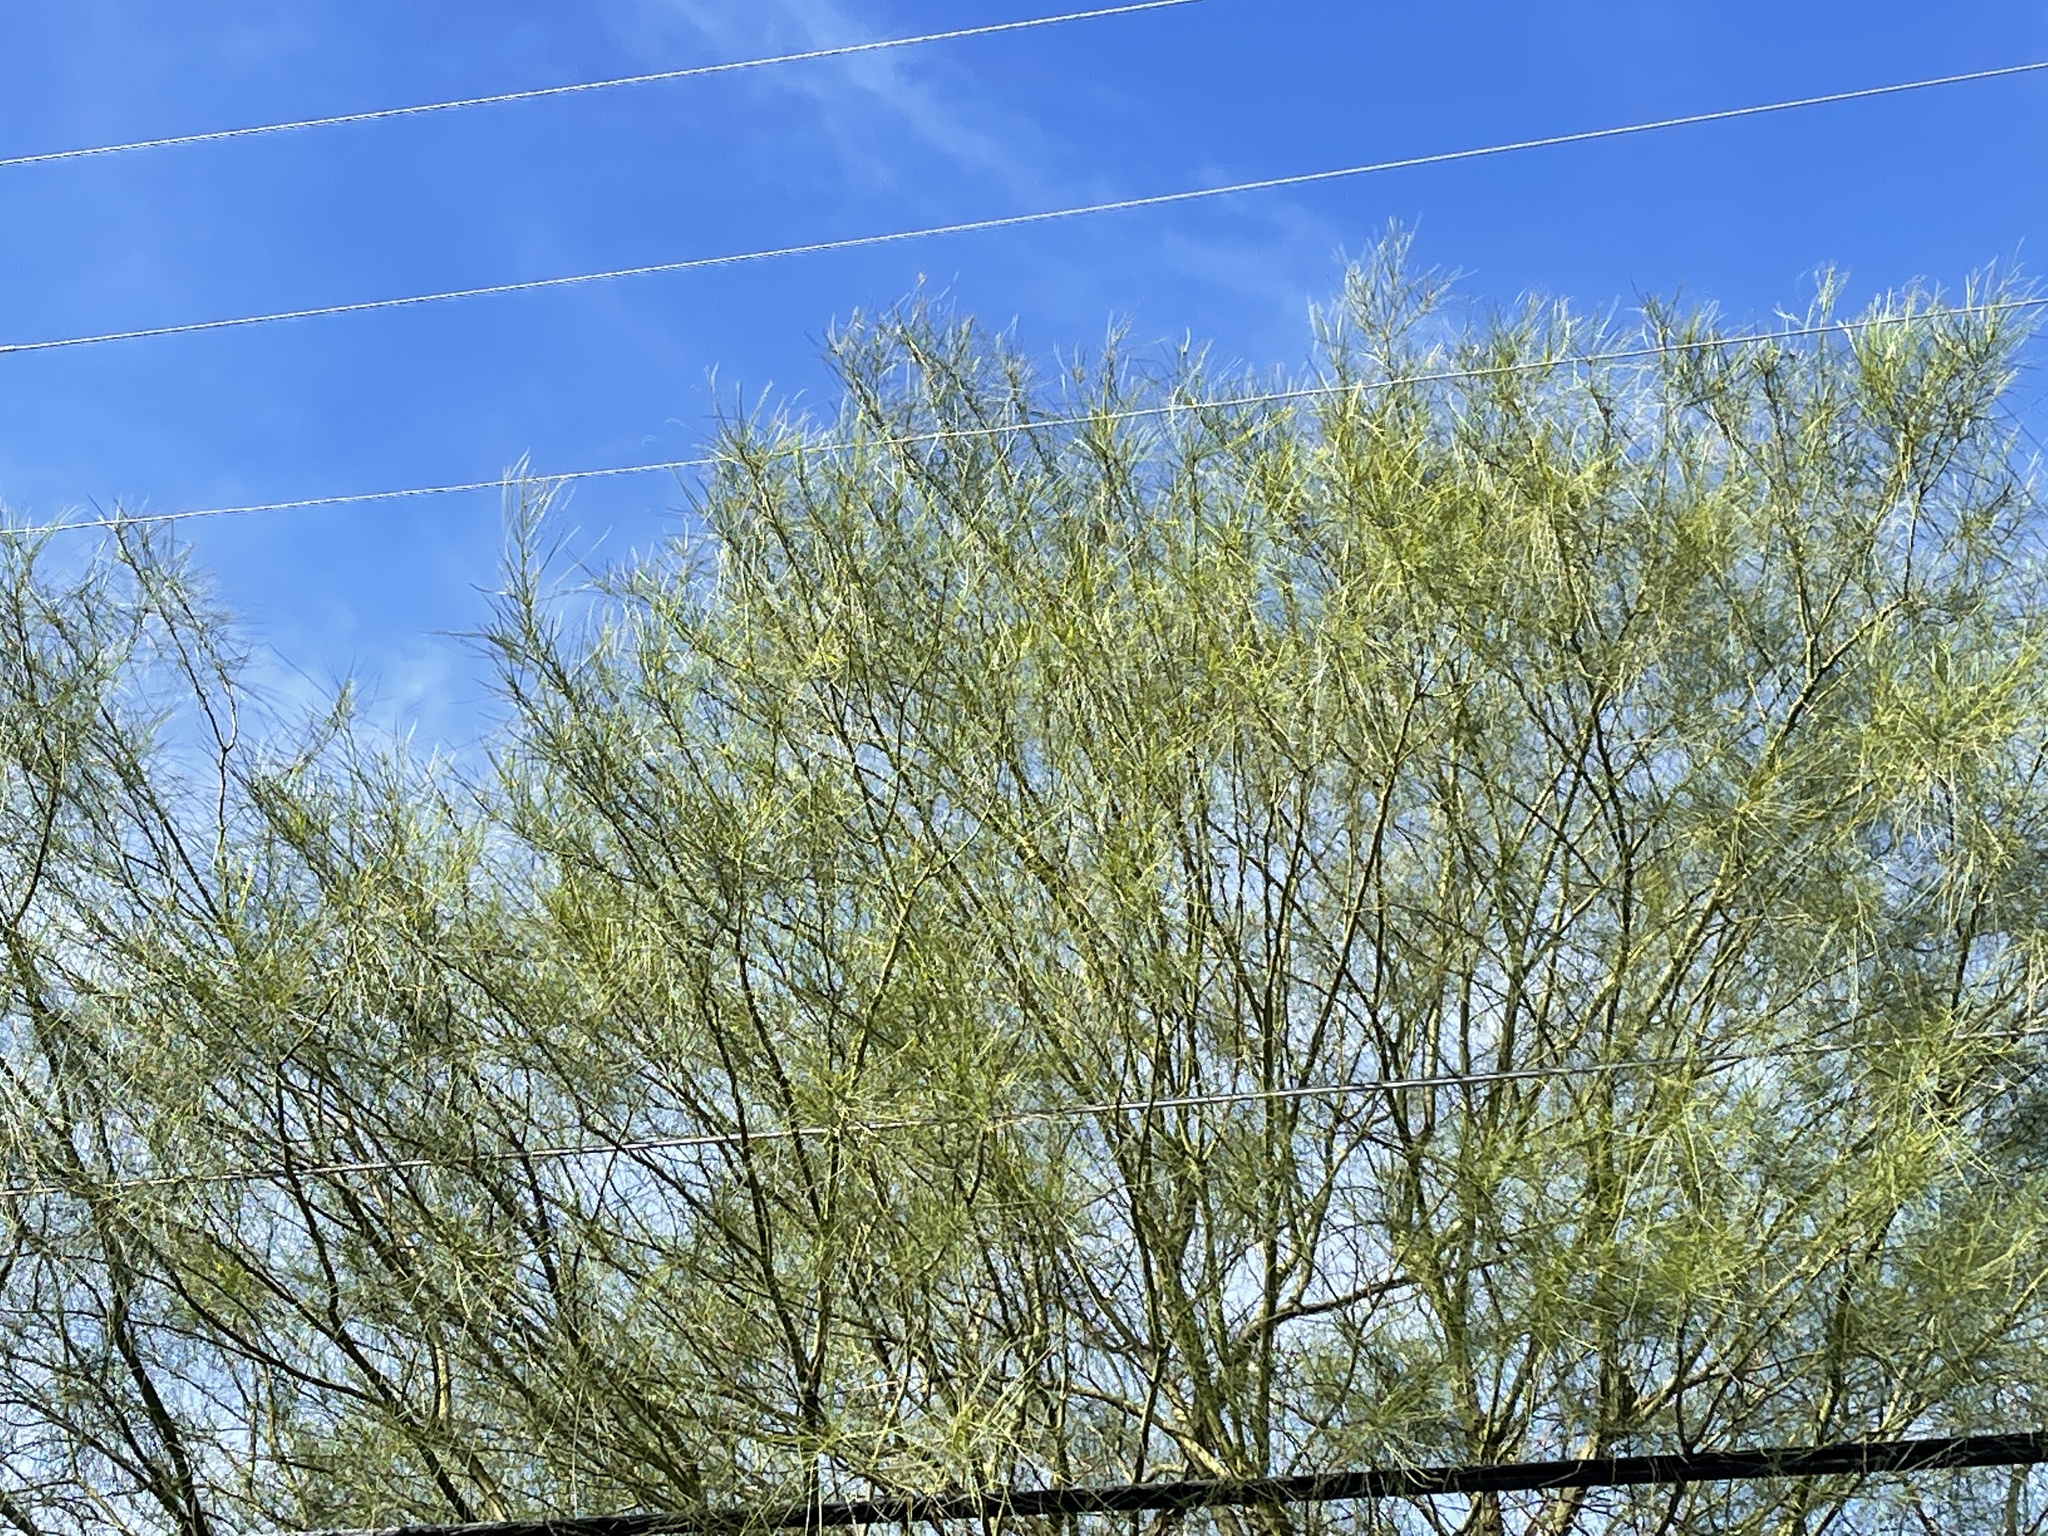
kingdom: Plantae
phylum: Tracheophyta
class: Magnoliopsida
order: Fabales
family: Fabaceae
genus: Parkinsonia
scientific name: Parkinsonia aculeata
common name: Jerusalem thorn
